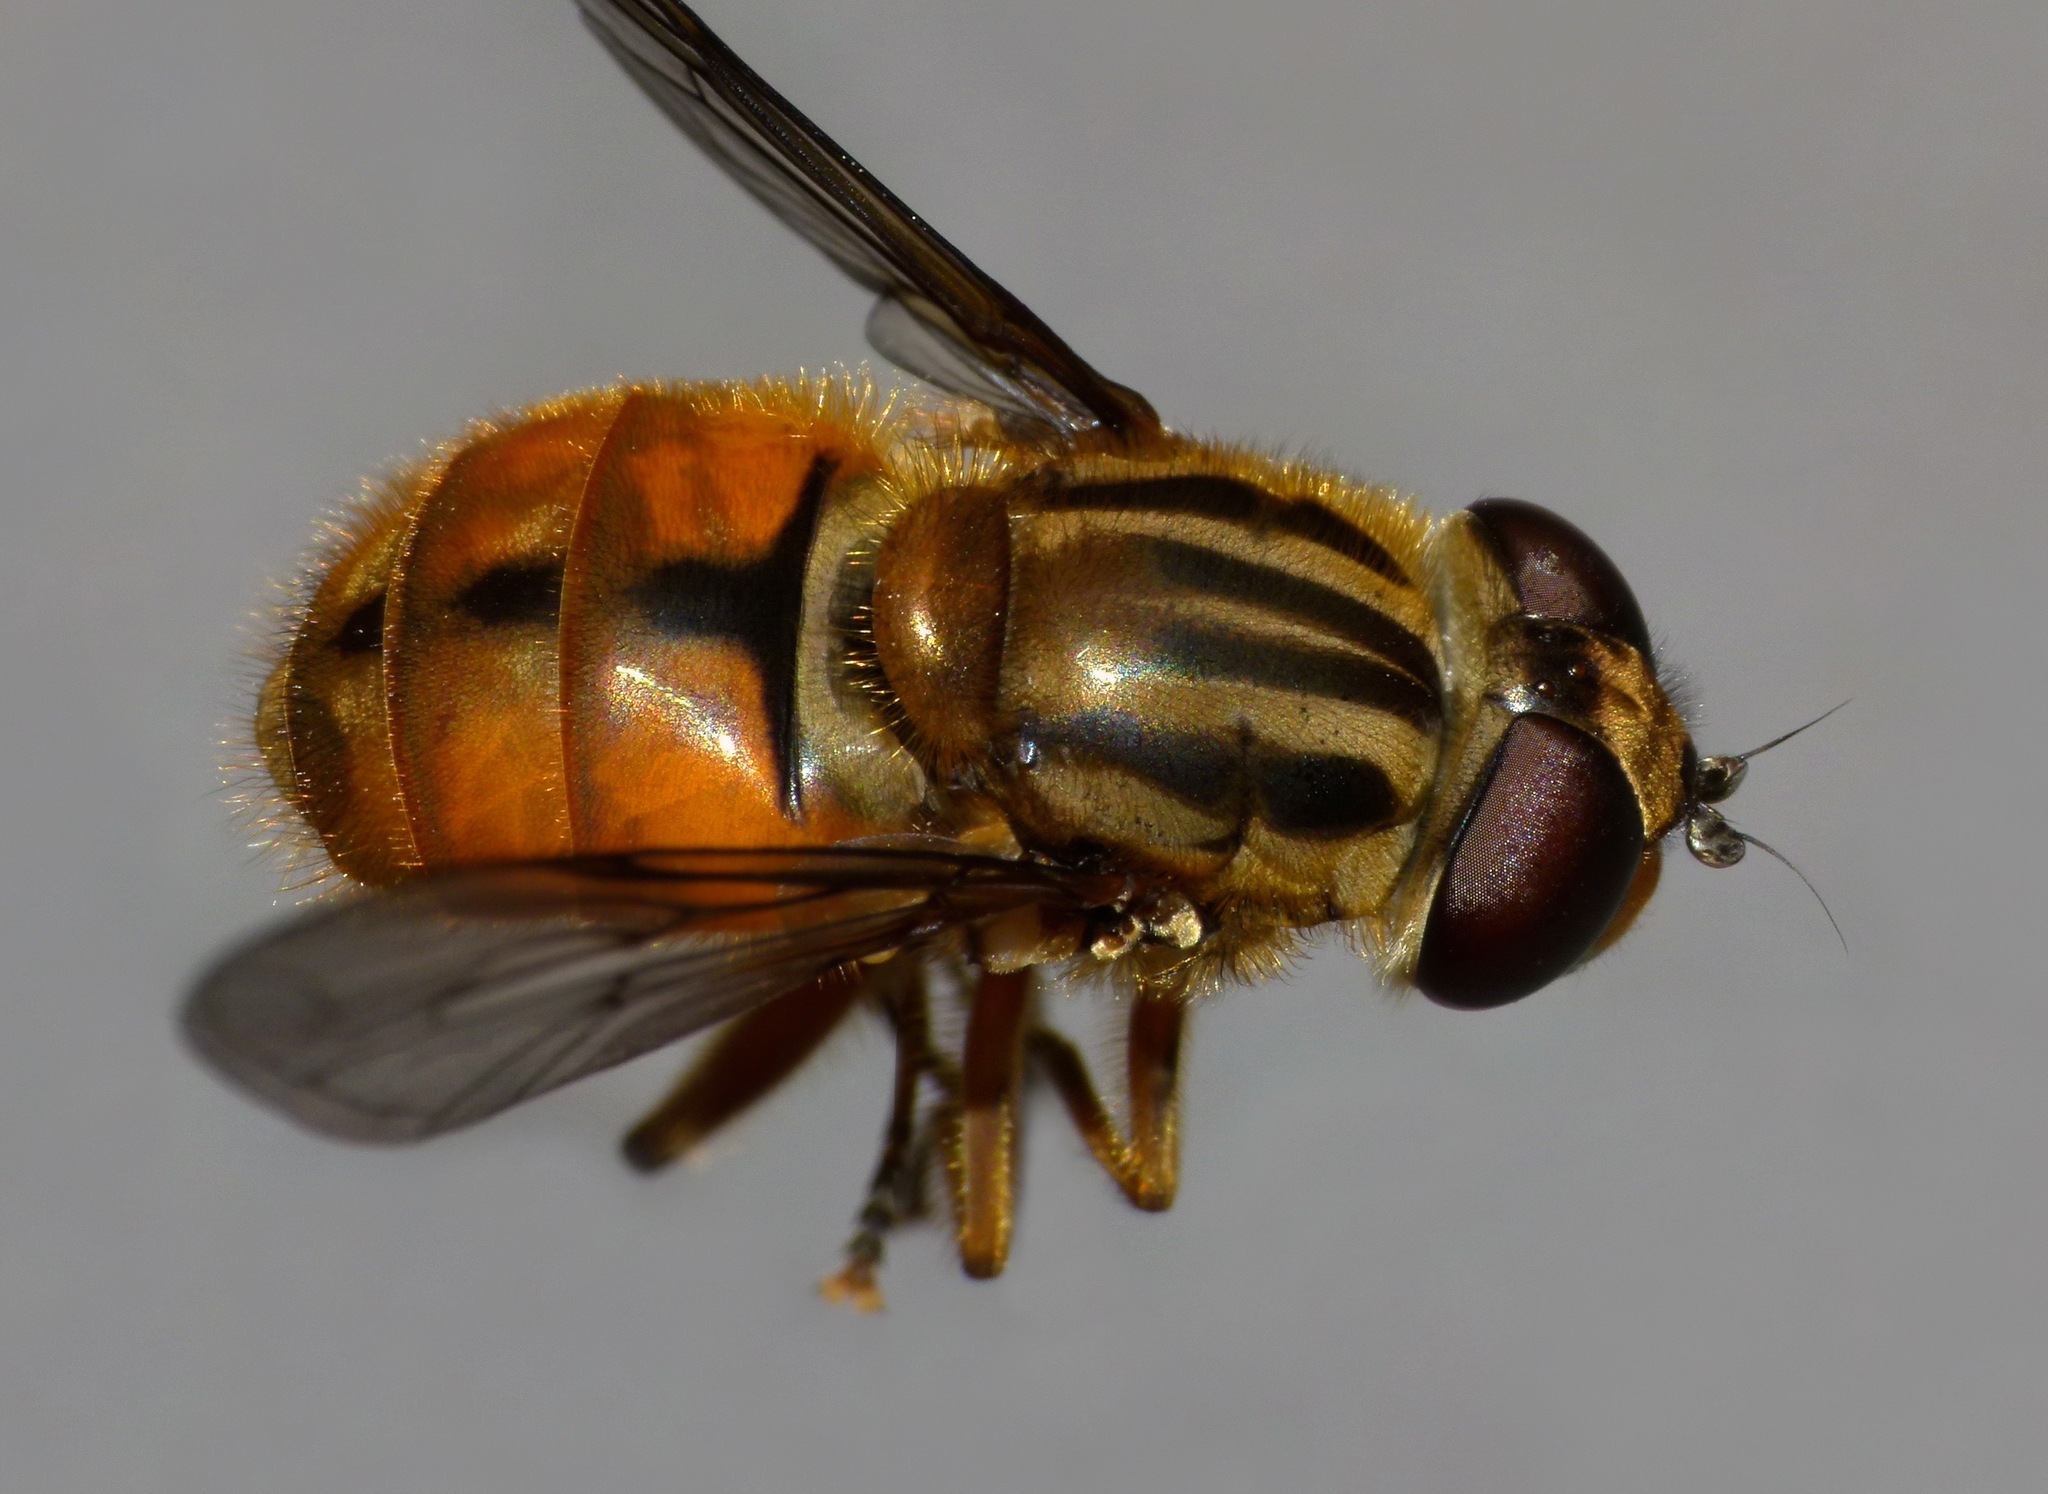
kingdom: Animalia
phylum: Arthropoda
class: Insecta
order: Diptera
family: Syrphidae
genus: Helophilus
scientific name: Helophilus cargilli
